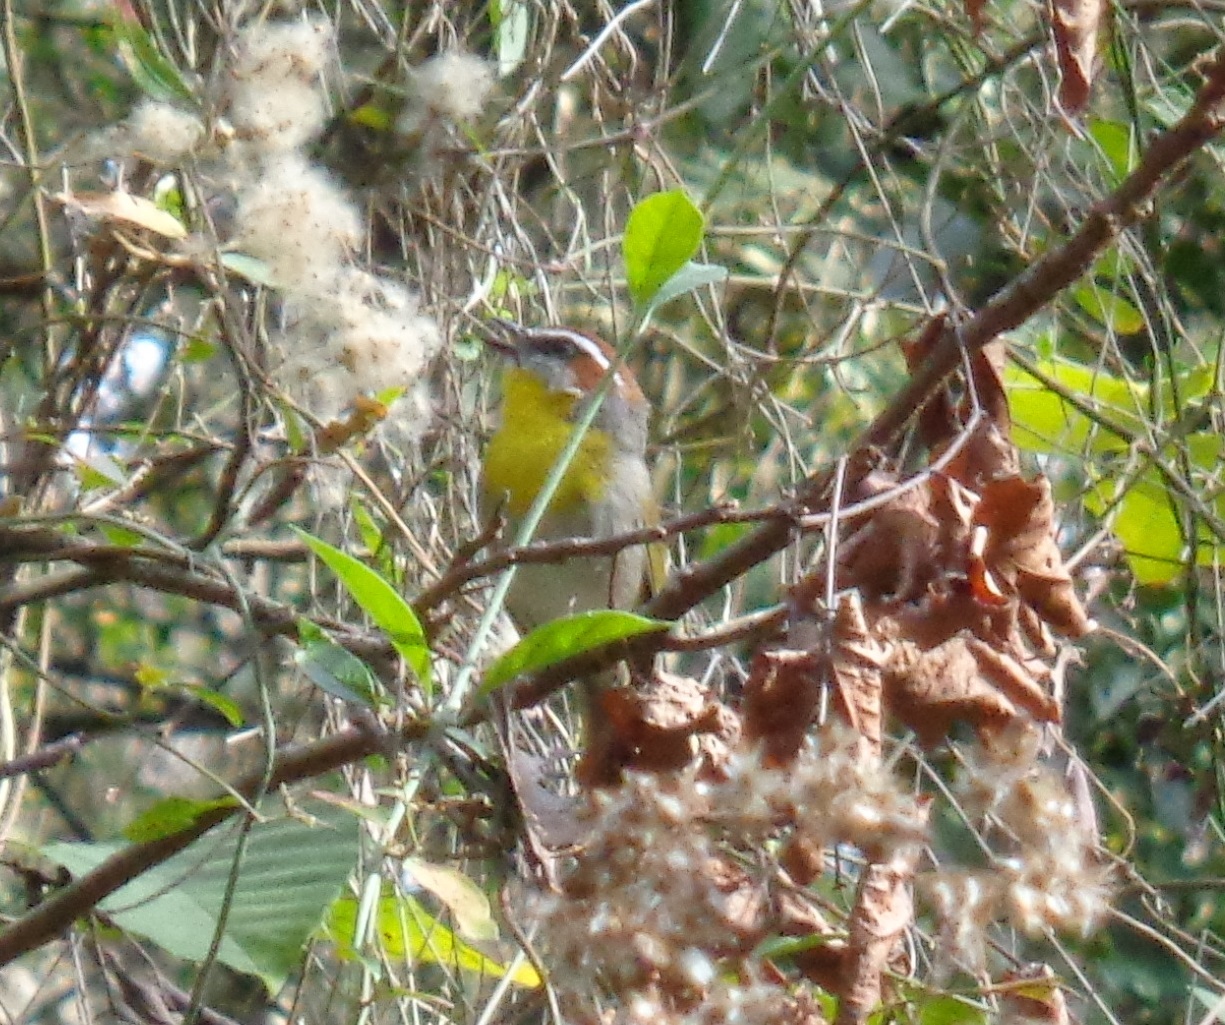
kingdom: Animalia
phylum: Chordata
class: Aves
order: Passeriformes
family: Parulidae
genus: Basileuterus
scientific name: Basileuterus rufifrons
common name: Rufous-capped warbler
